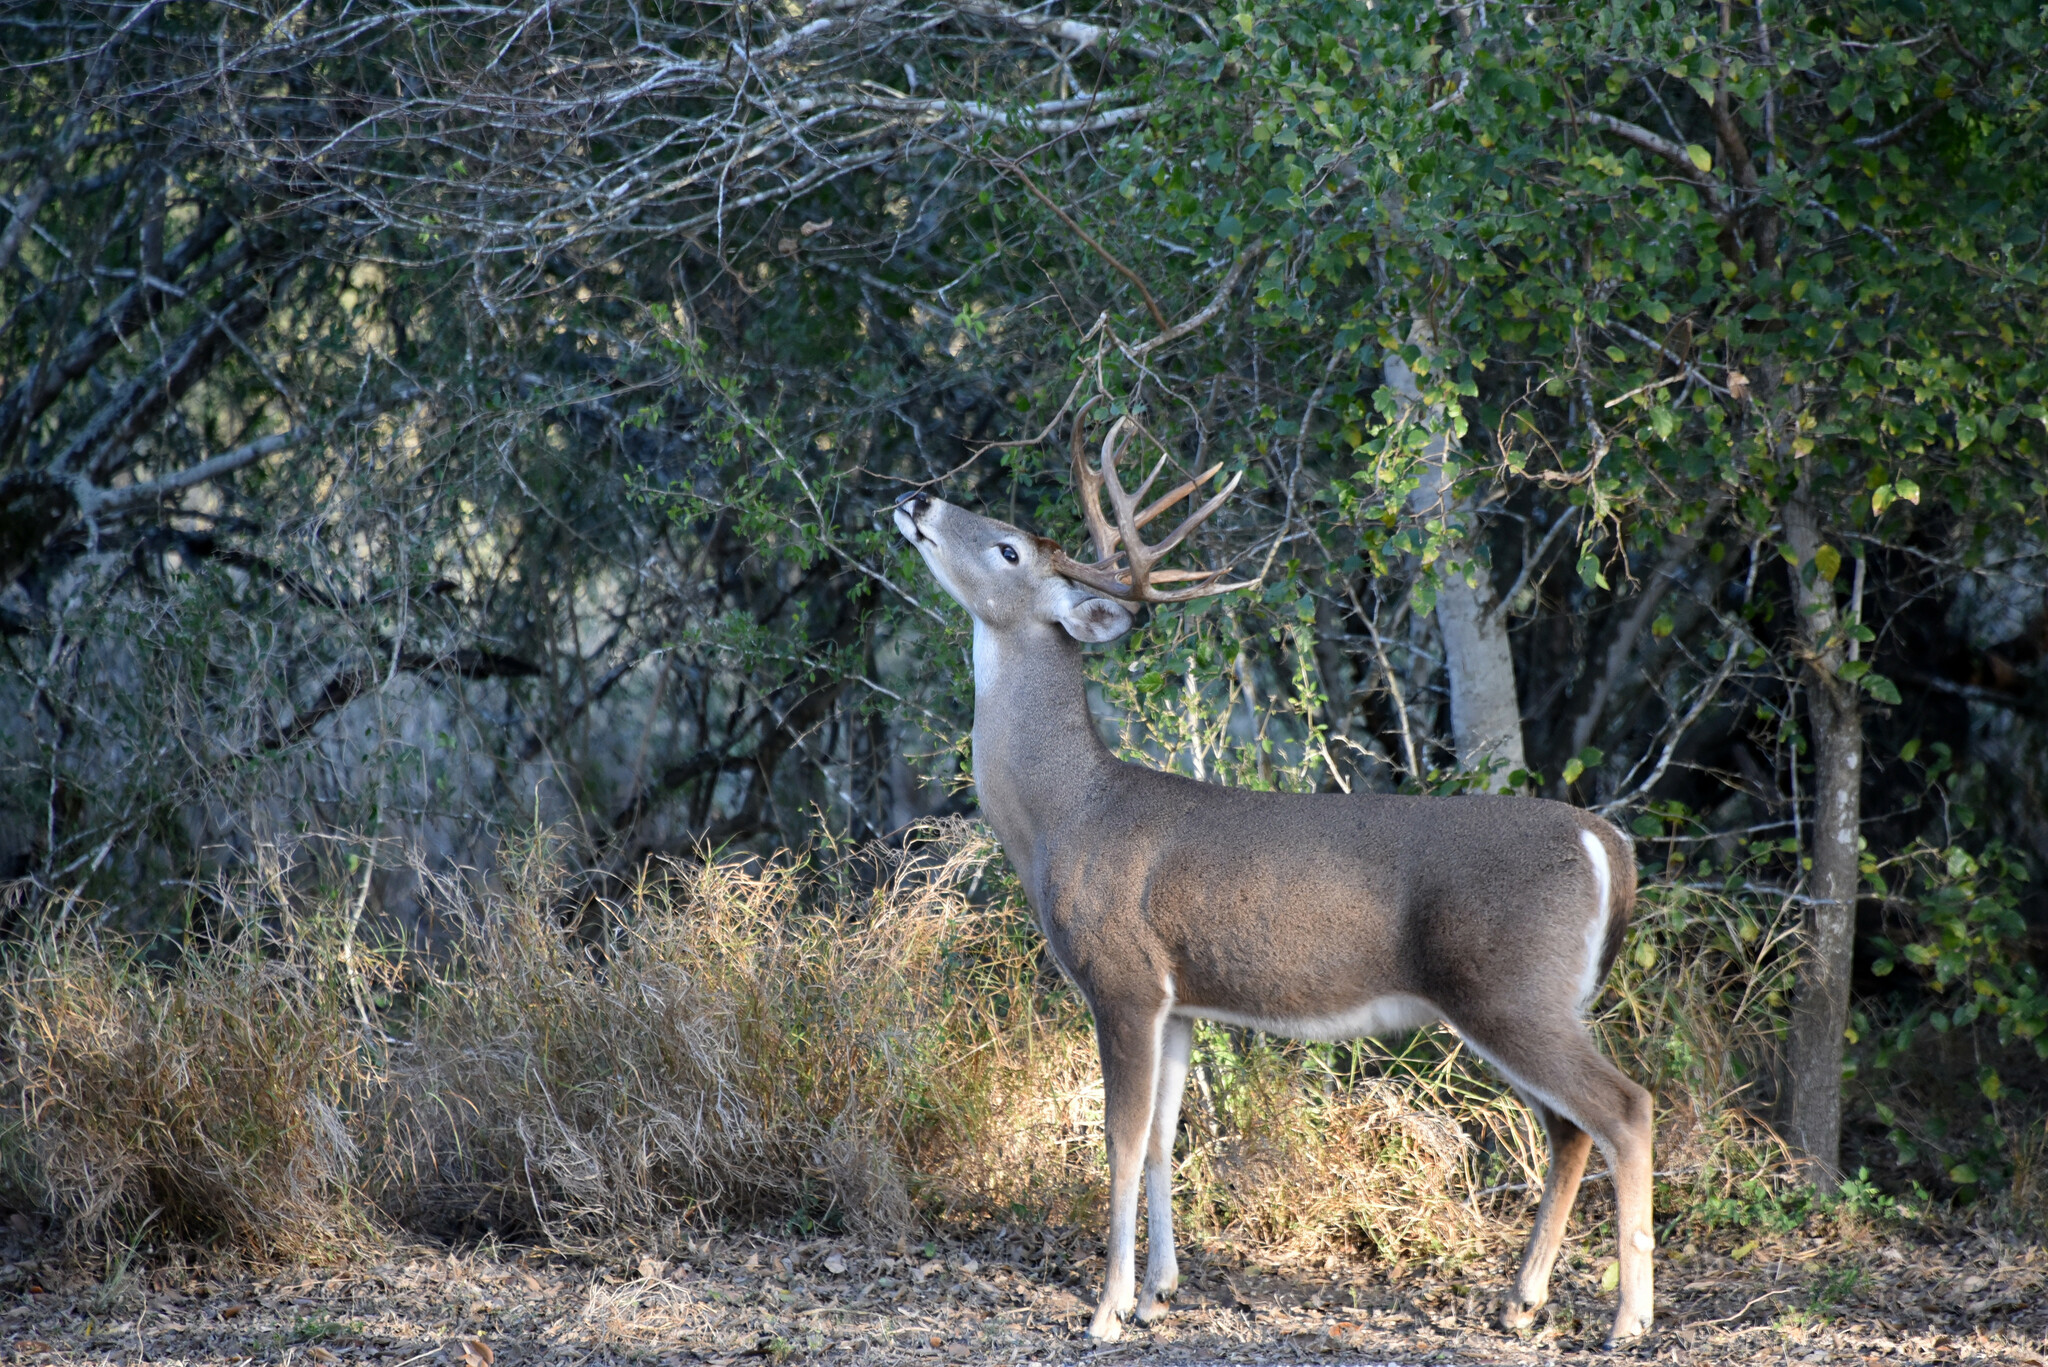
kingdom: Animalia
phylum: Chordata
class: Mammalia
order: Artiodactyla
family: Cervidae
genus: Odocoileus
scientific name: Odocoileus virginianus
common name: White-tailed deer
